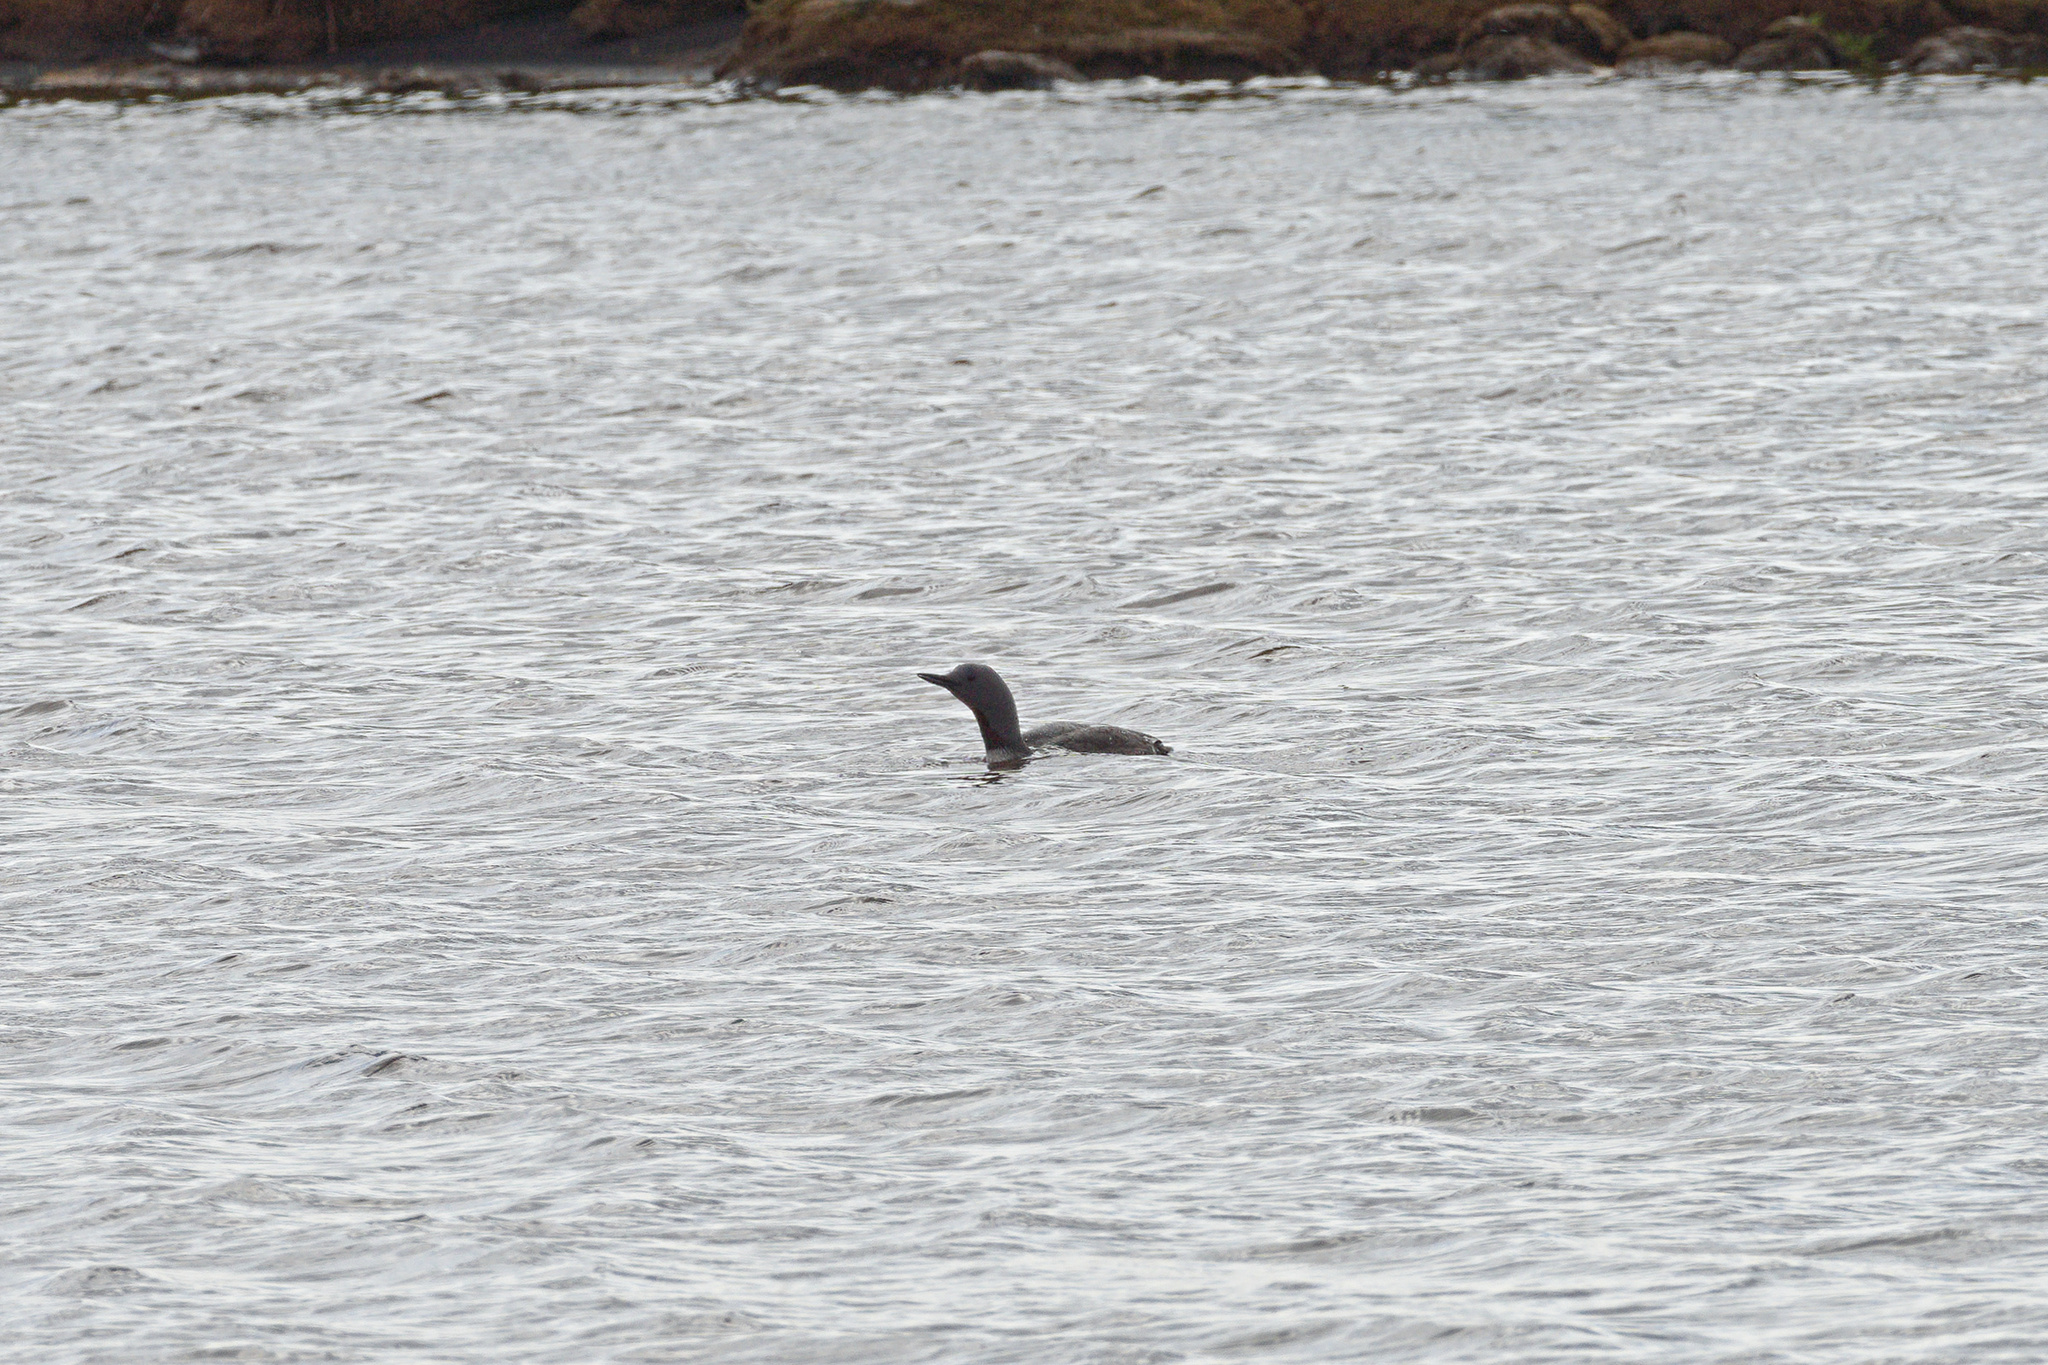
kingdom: Animalia
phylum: Chordata
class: Aves
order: Gaviiformes
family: Gaviidae
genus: Gavia
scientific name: Gavia stellata
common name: Red-throated loon
